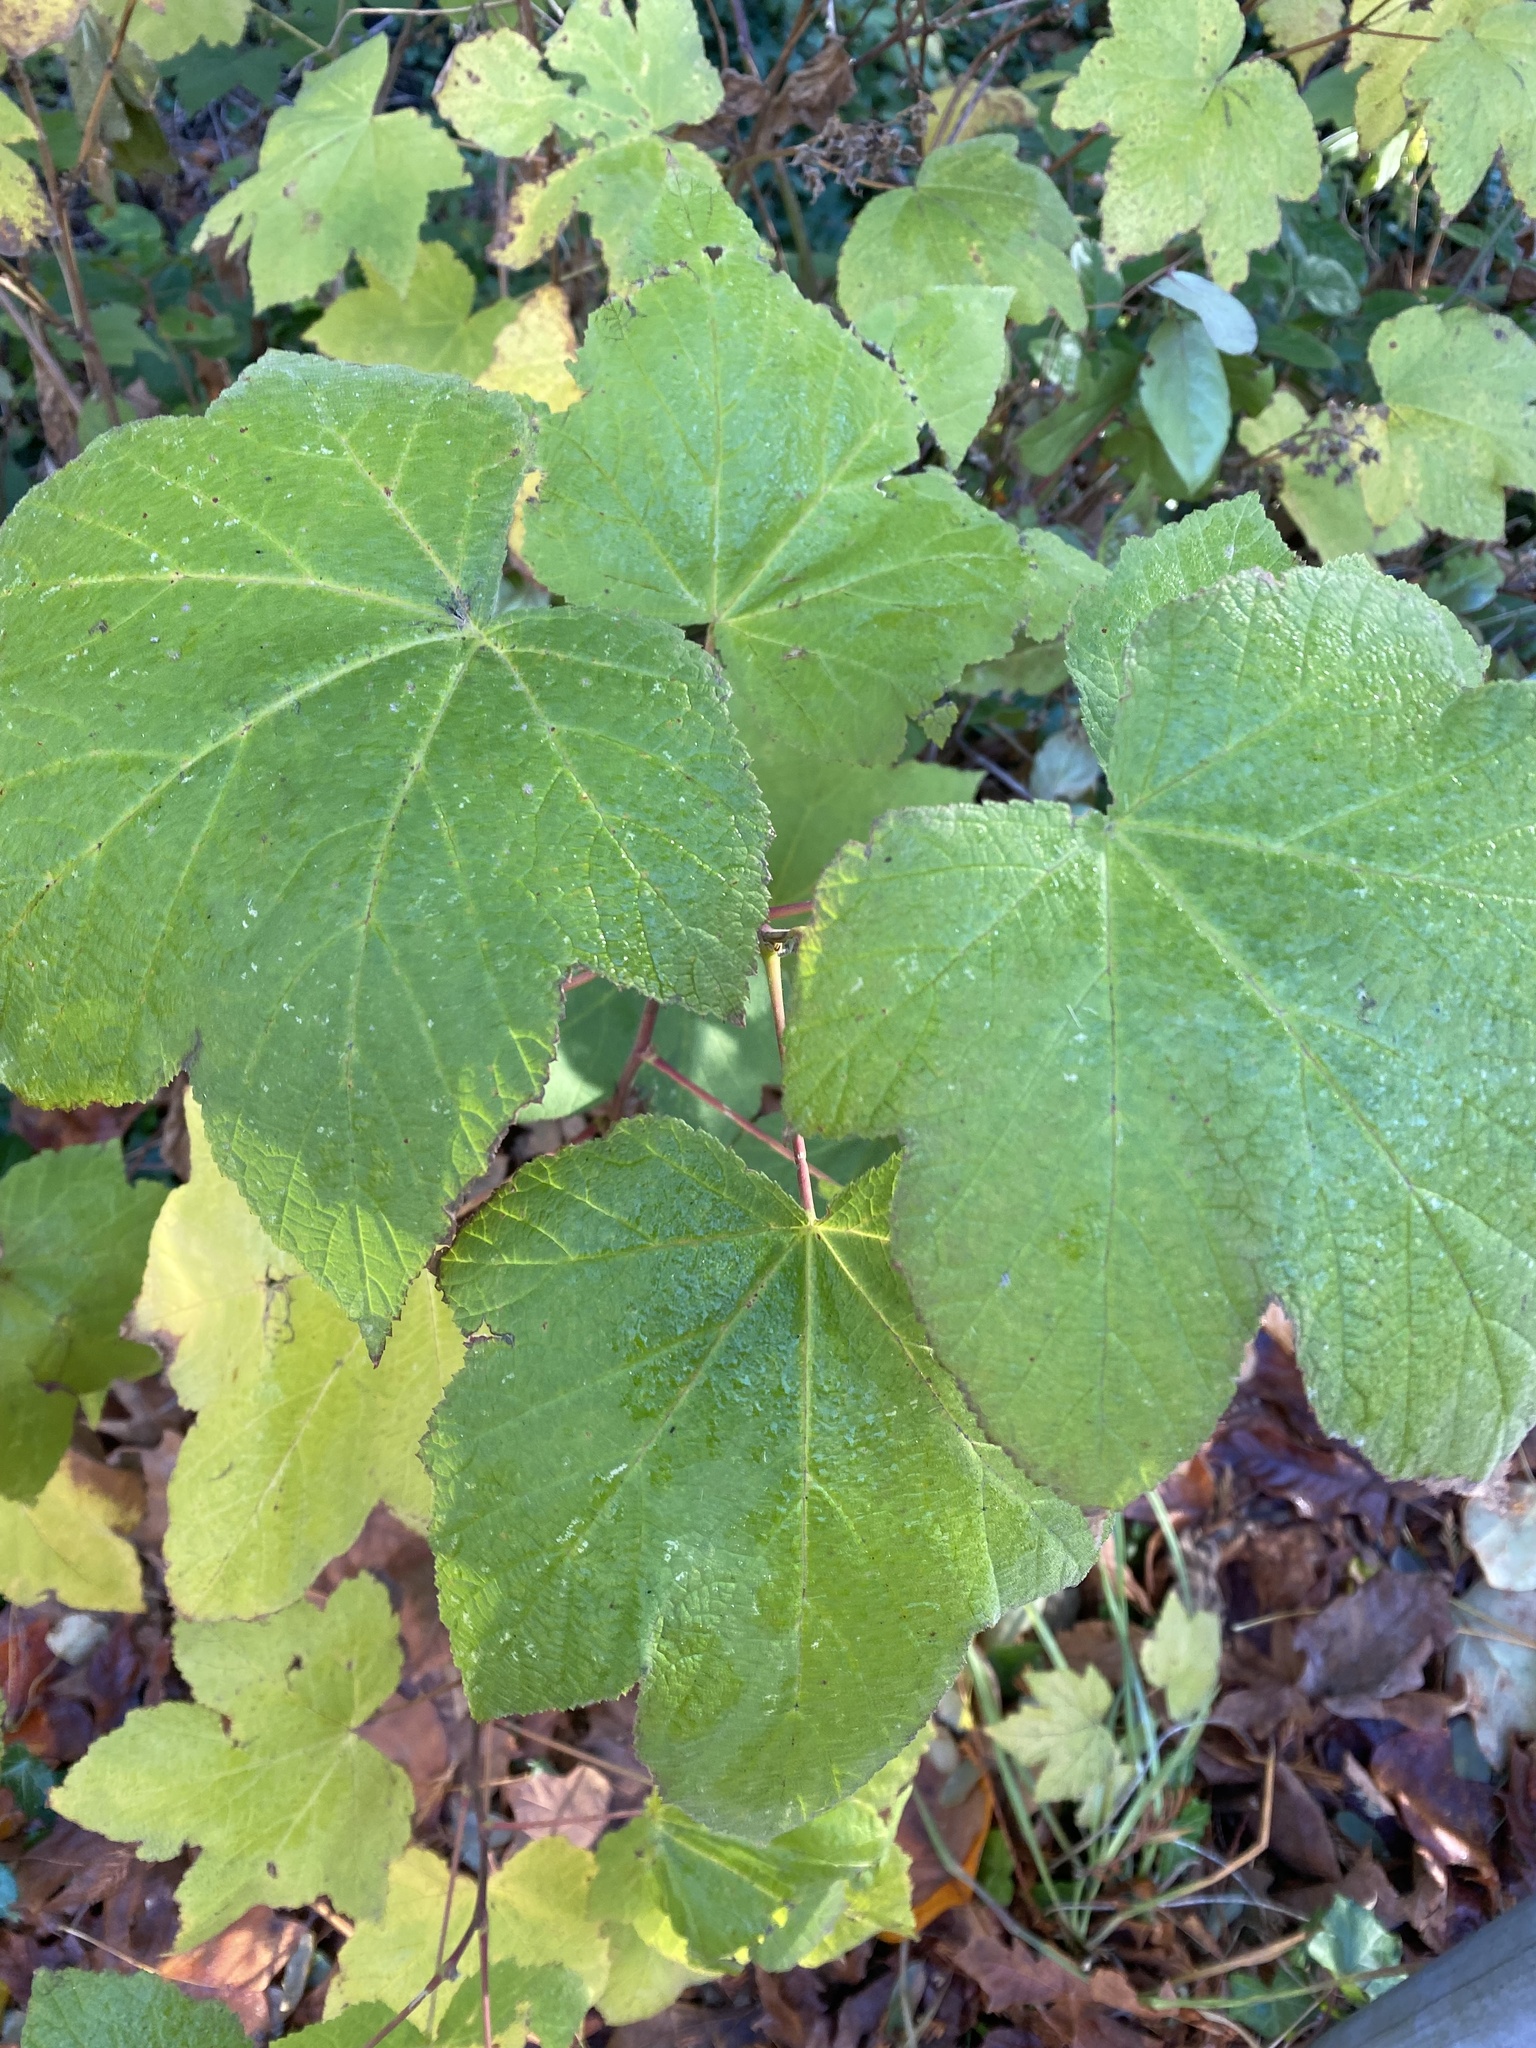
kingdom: Plantae
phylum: Tracheophyta
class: Magnoliopsida
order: Rosales
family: Rosaceae
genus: Rubus
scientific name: Rubus parviflorus
